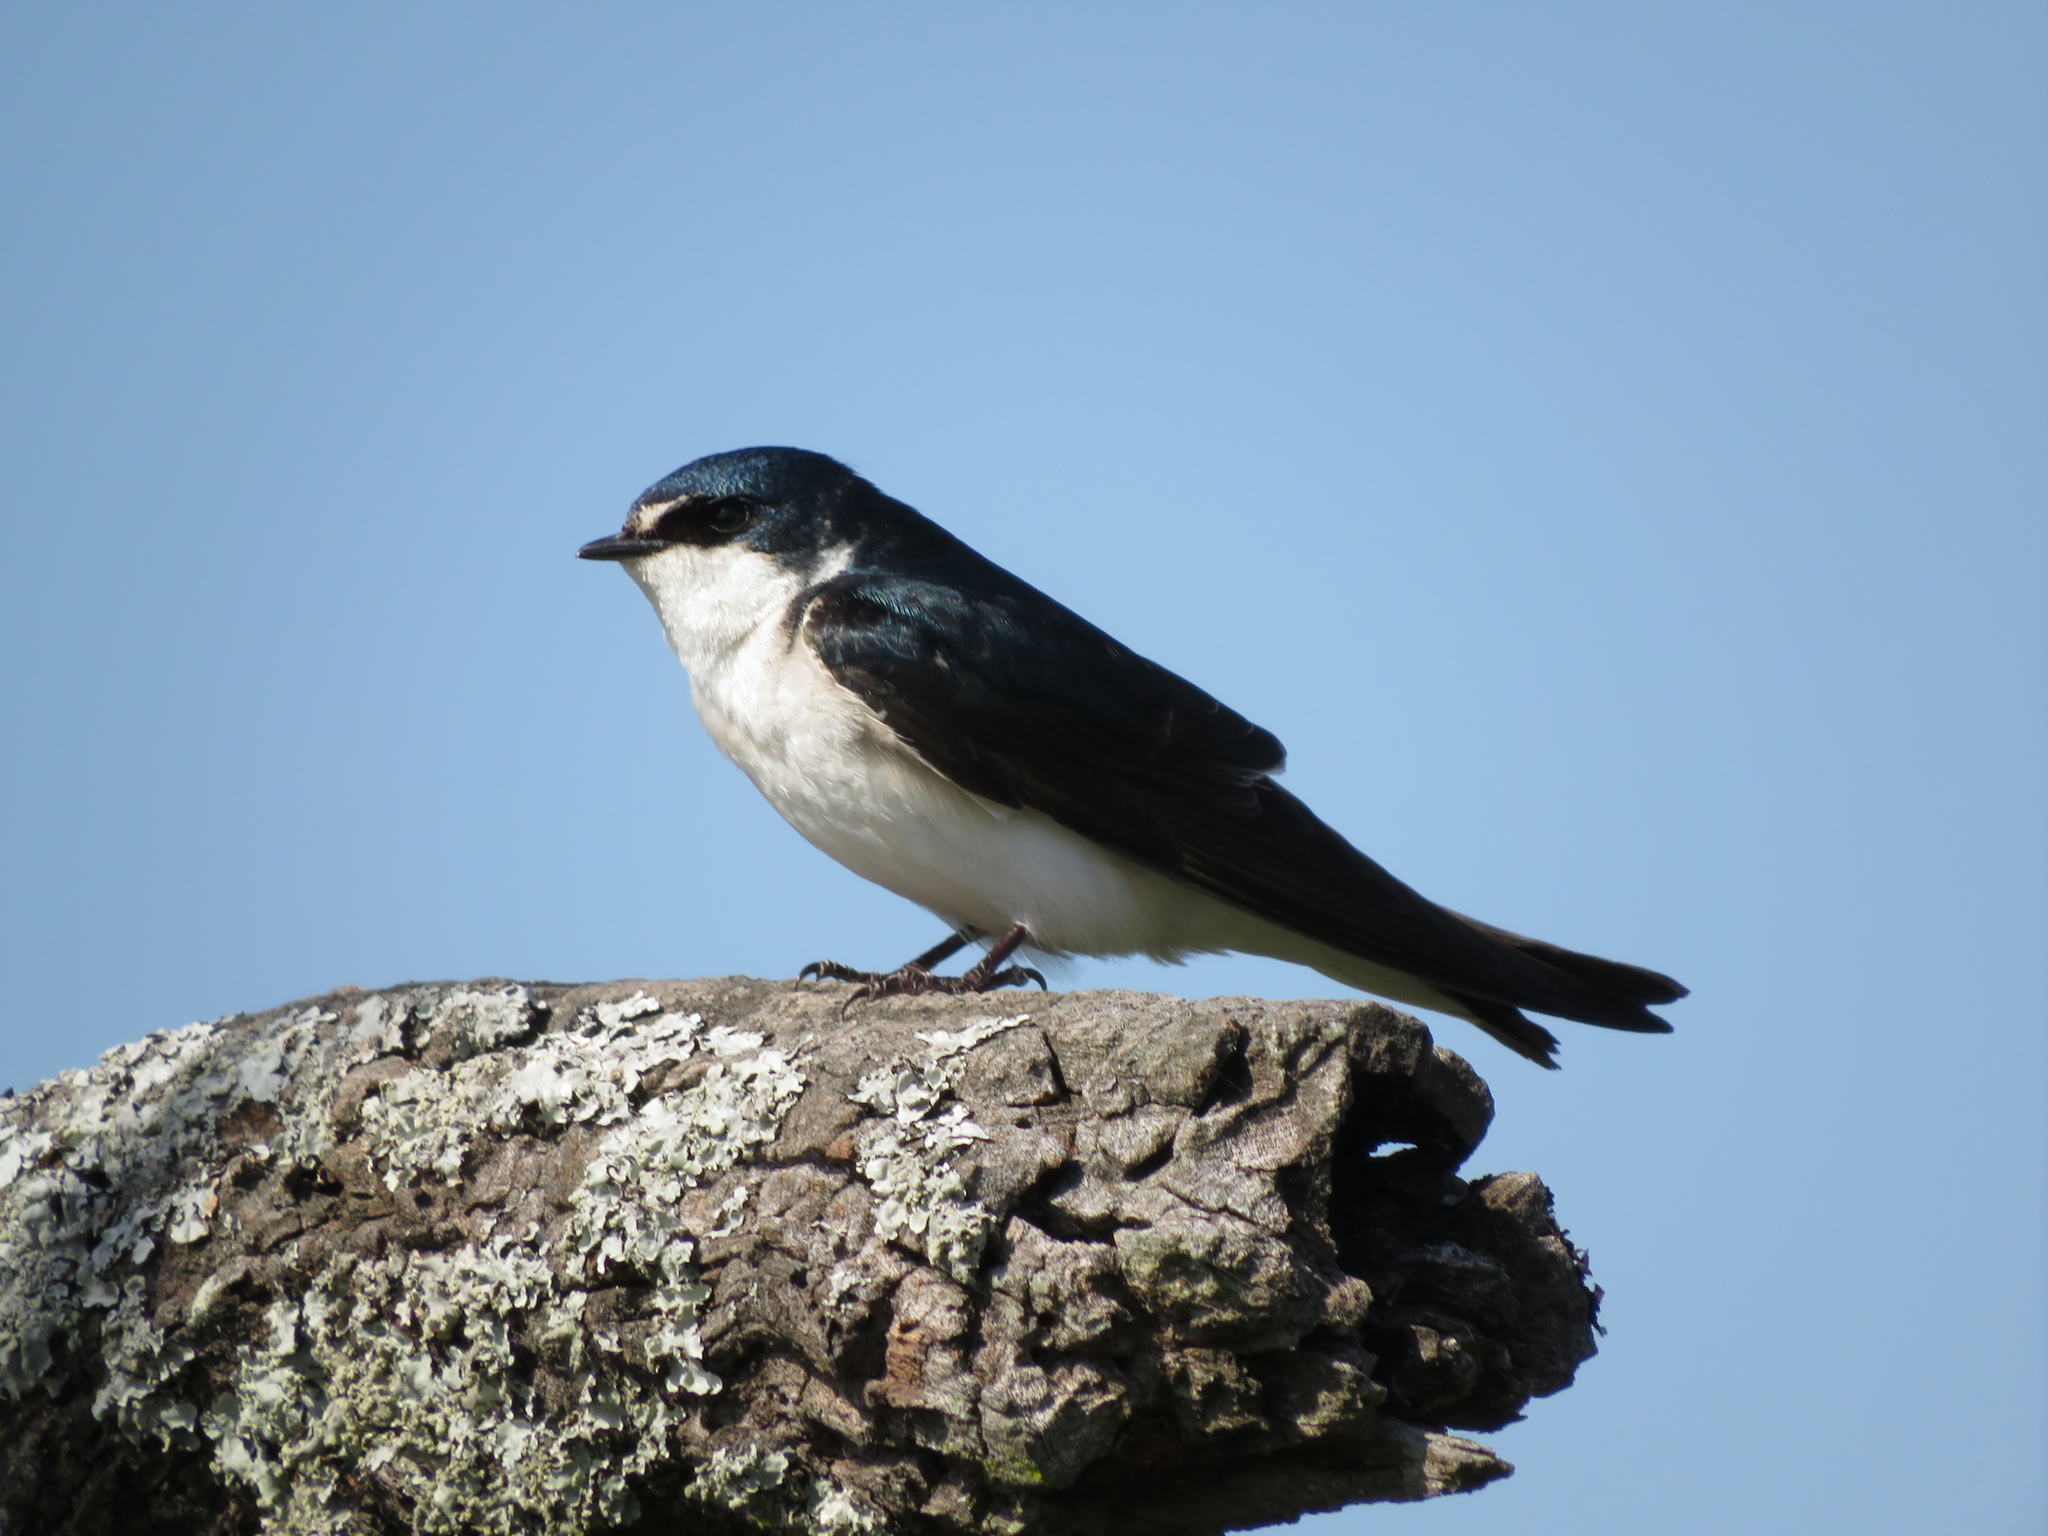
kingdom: Animalia
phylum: Chordata
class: Aves
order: Passeriformes
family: Hirundinidae
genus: Tachycineta
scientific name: Tachycineta leucorrhoa
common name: White-rumped swallow
